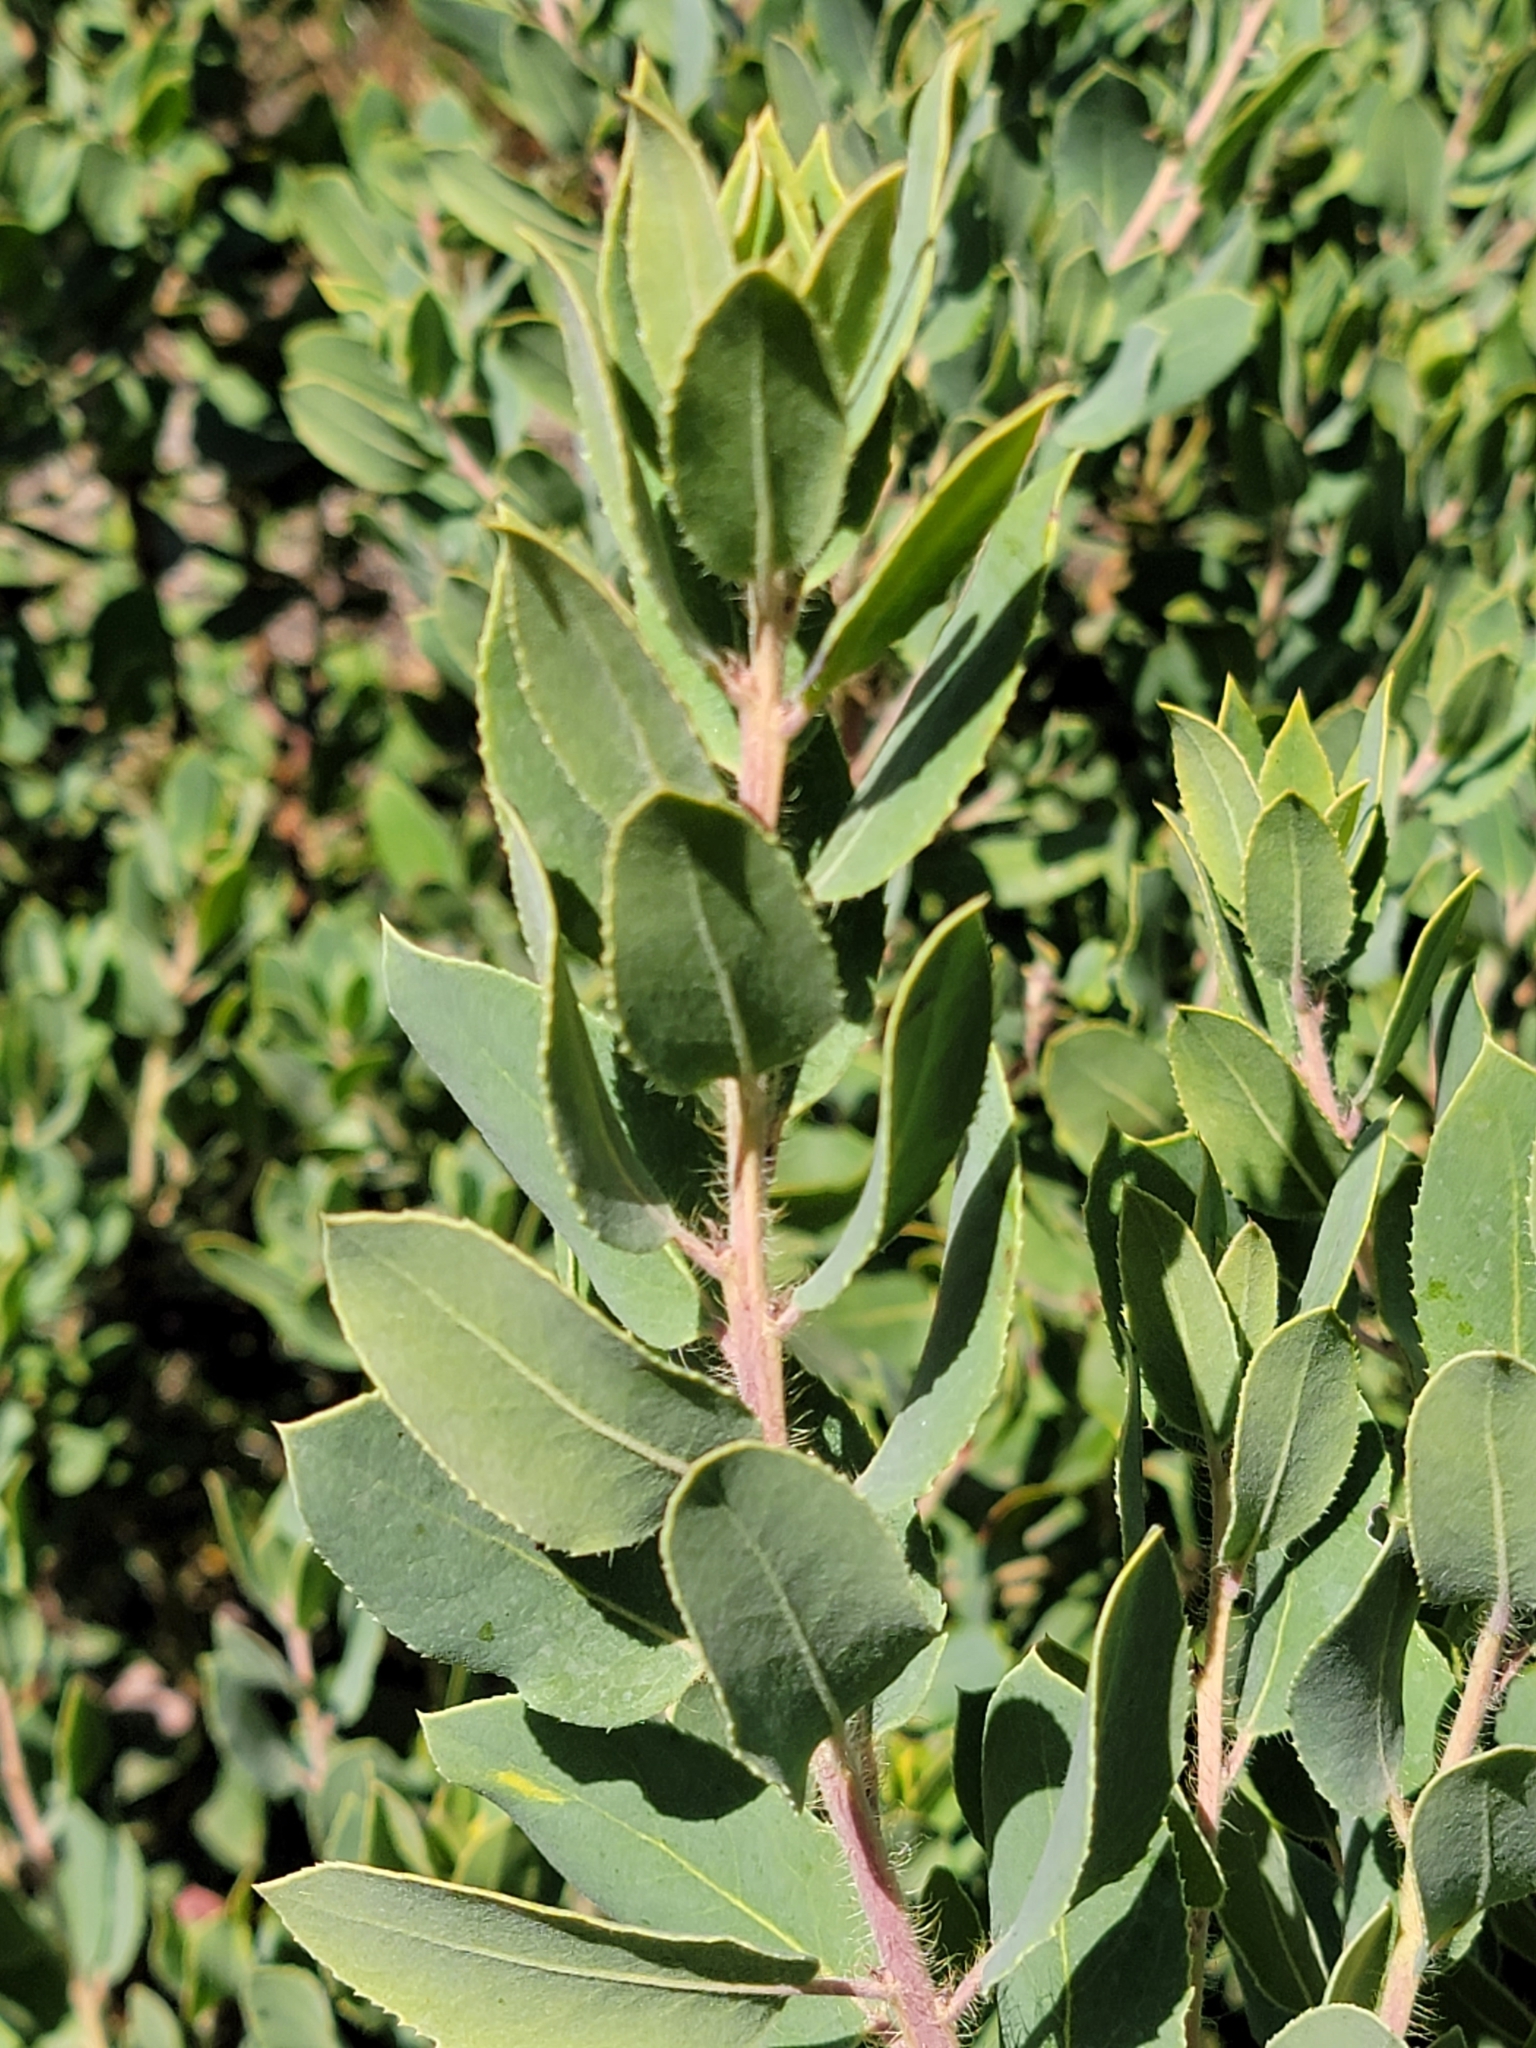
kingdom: Plantae
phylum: Tracheophyta
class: Magnoliopsida
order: Ericales
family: Ericaceae
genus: Arctostaphylos
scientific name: Arctostaphylos crustacea
